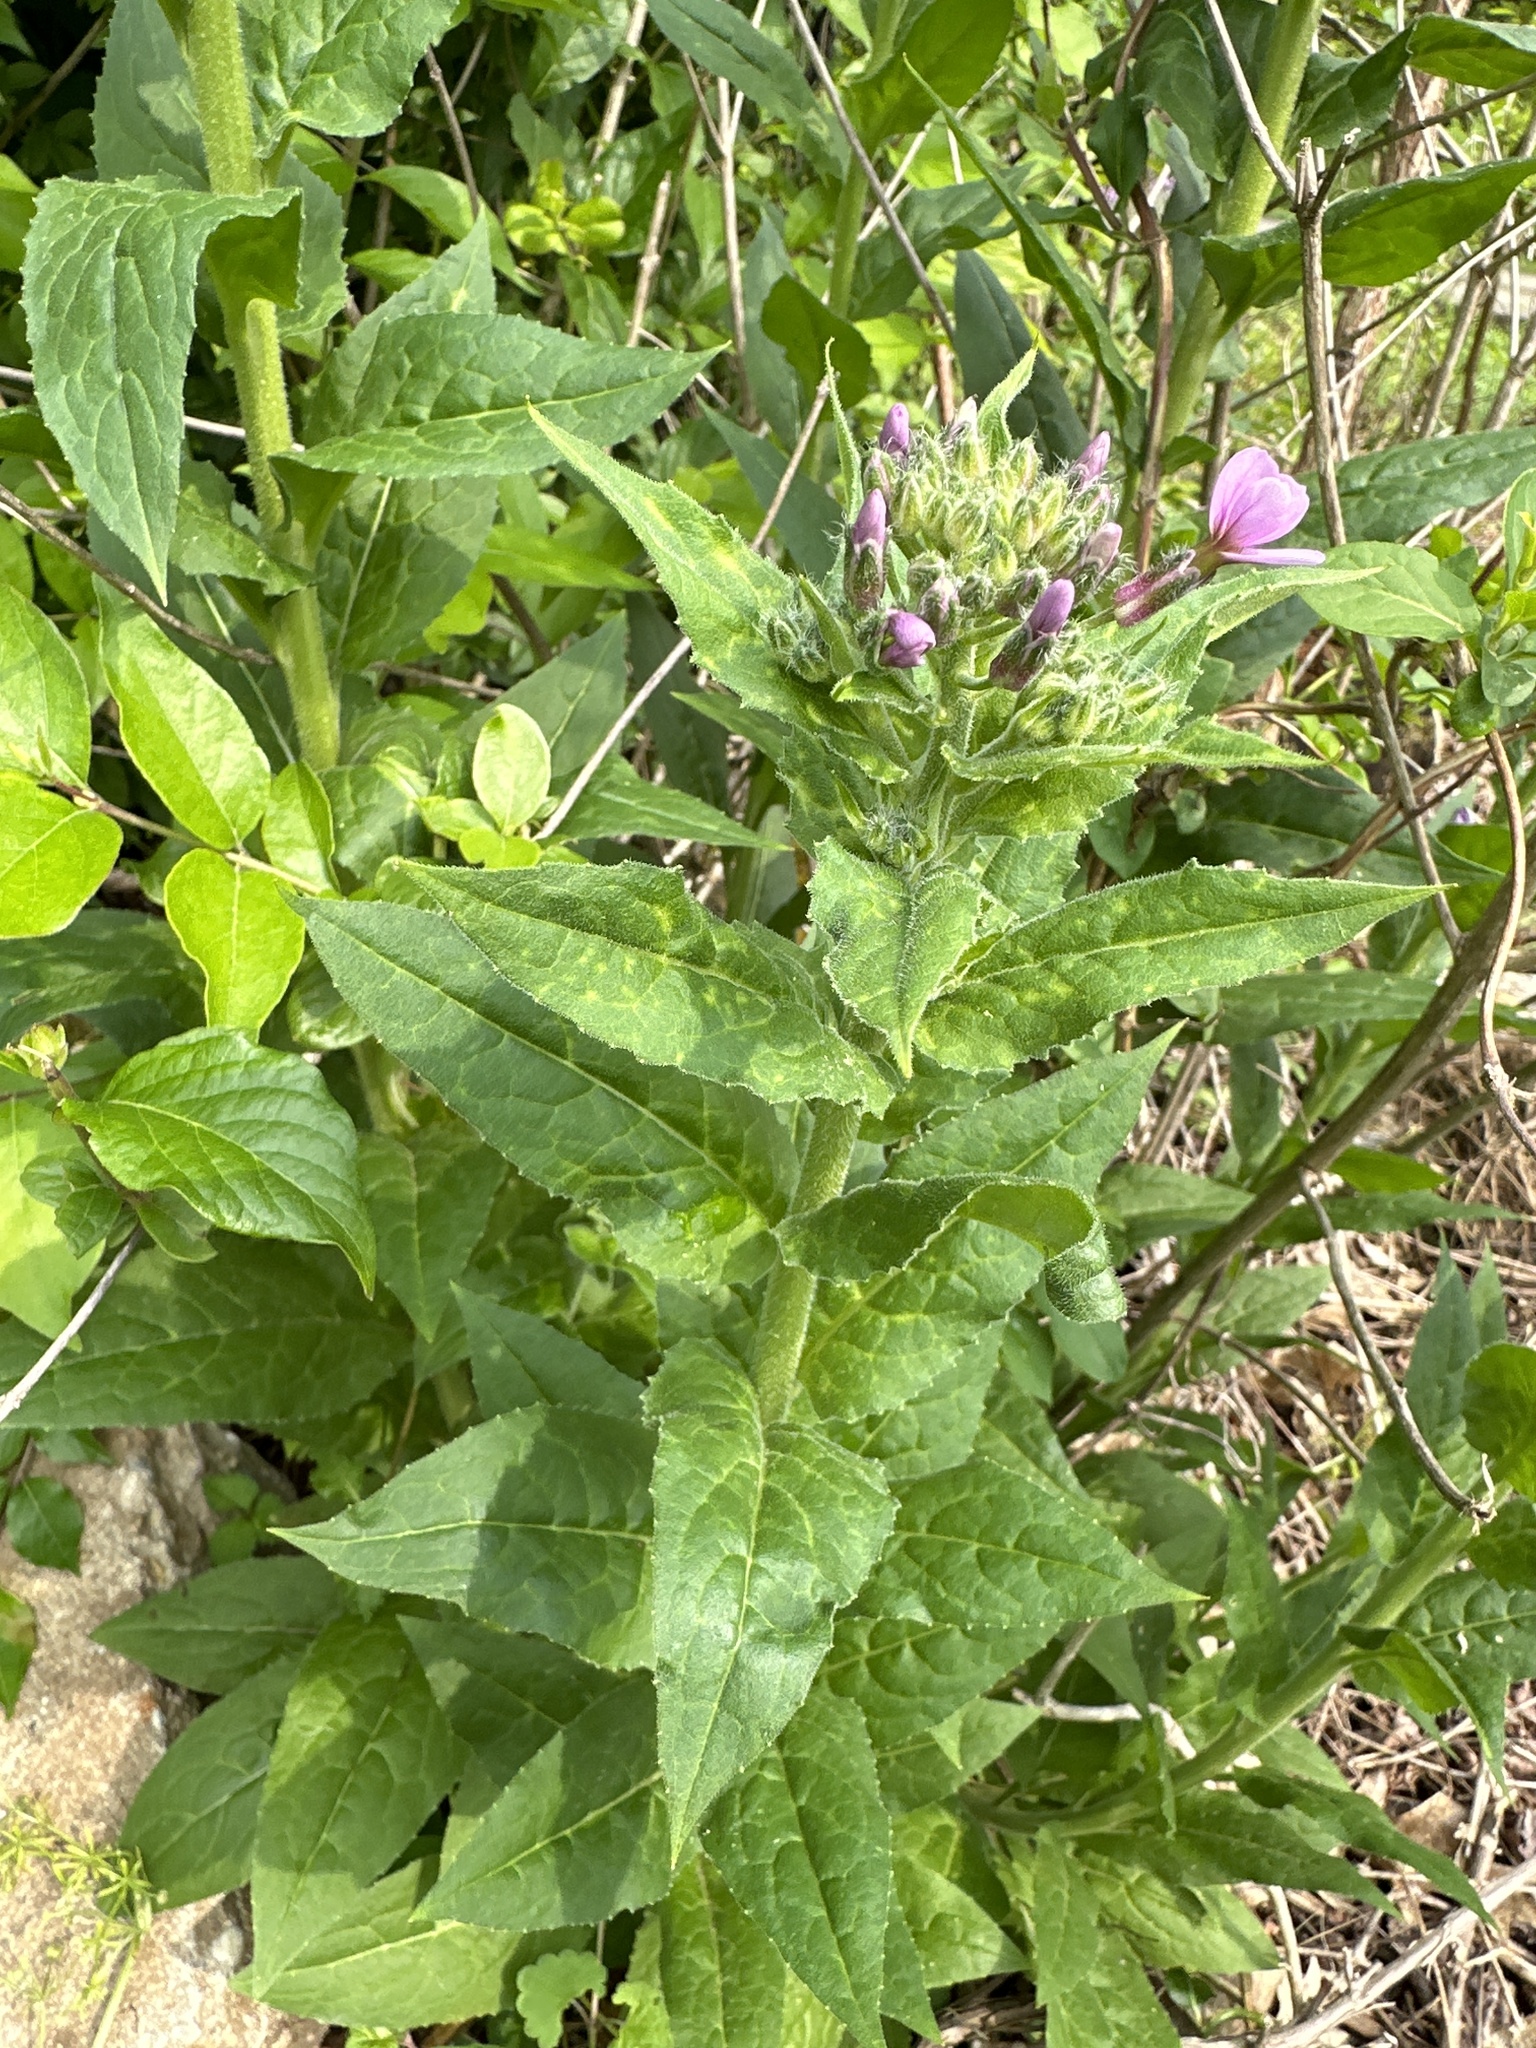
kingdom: Plantae
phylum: Tracheophyta
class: Magnoliopsida
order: Brassicales
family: Brassicaceae
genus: Hesperis
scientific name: Hesperis matronalis
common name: Dame's-violet
